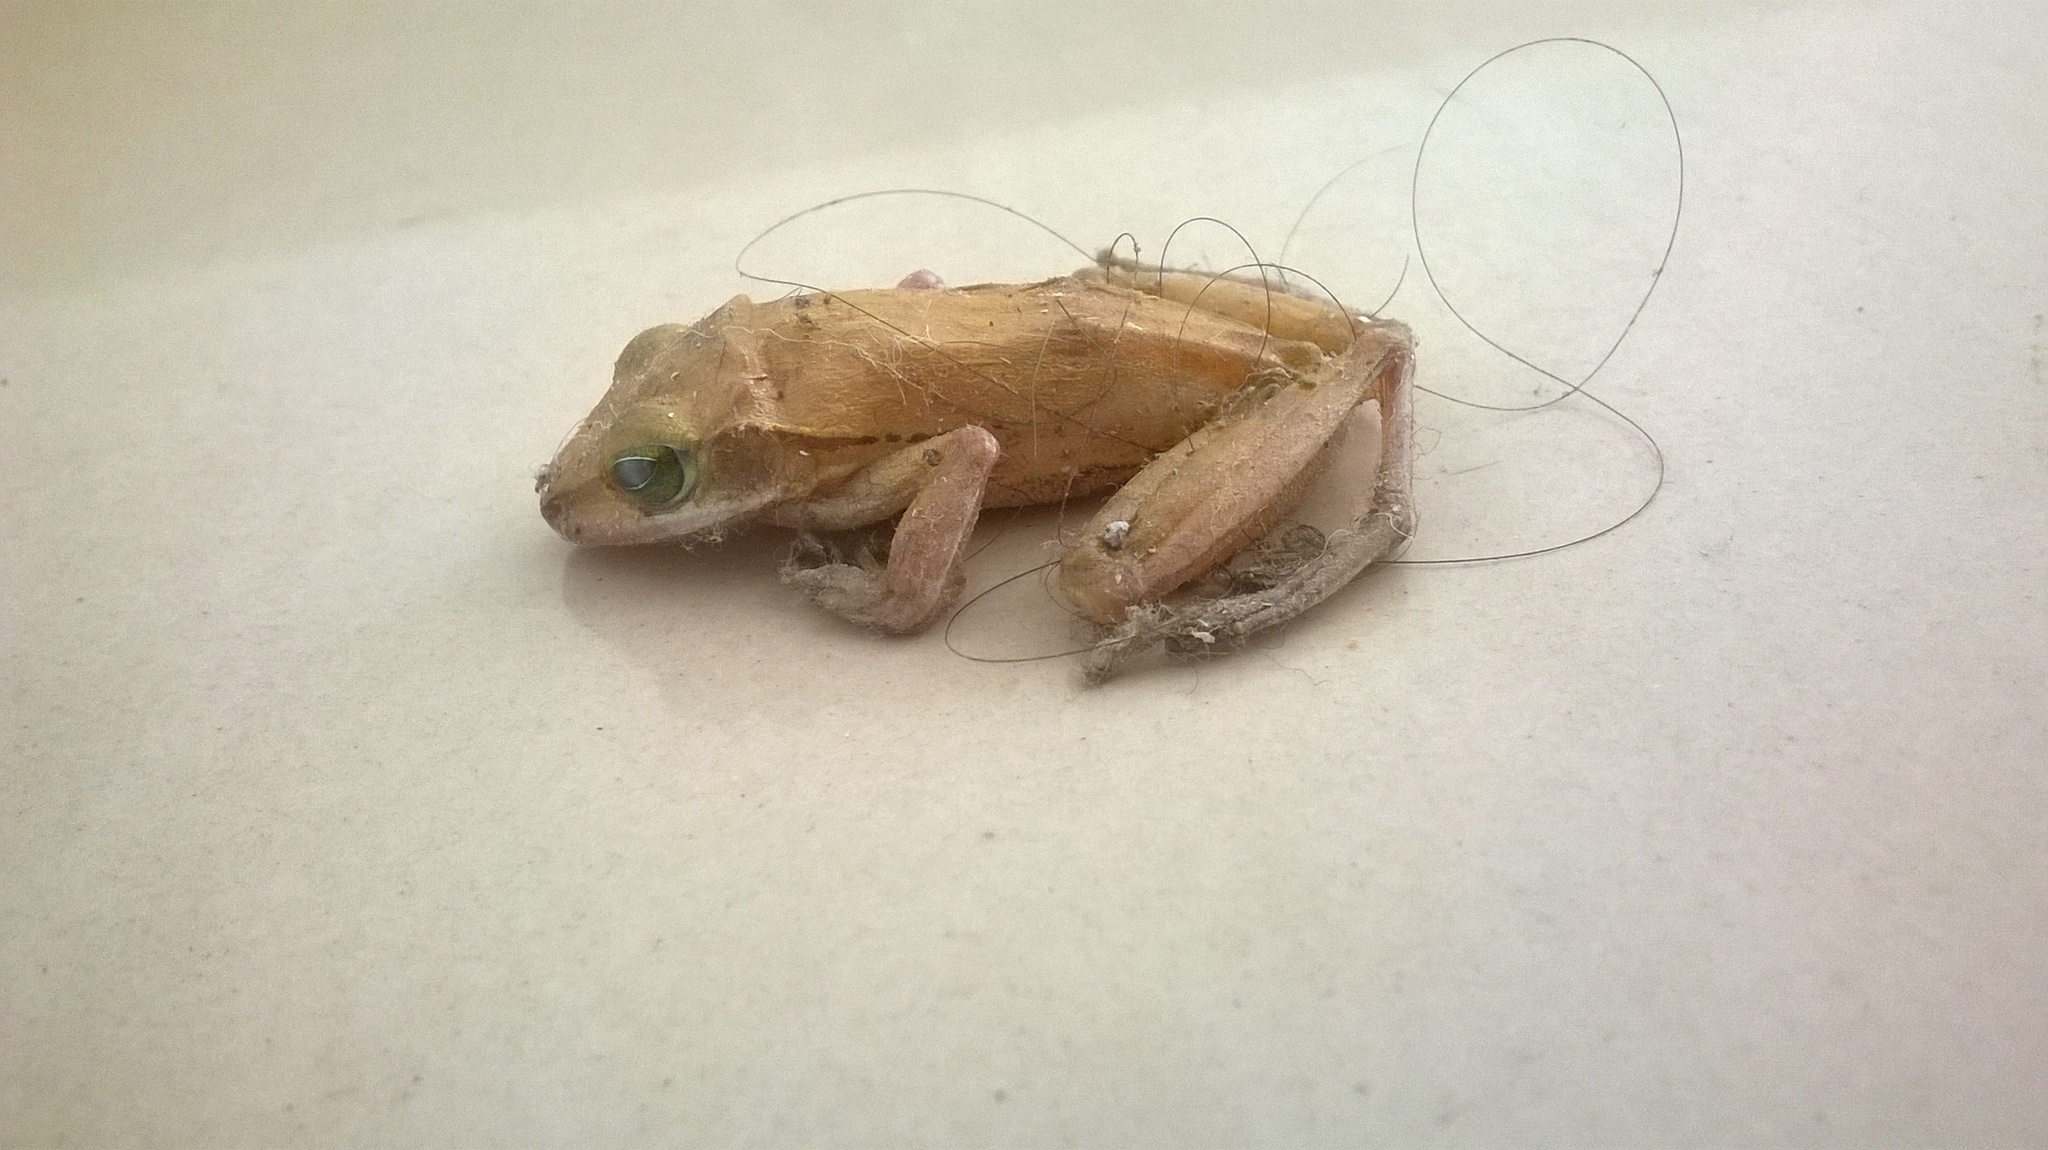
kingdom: Animalia
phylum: Chordata
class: Amphibia
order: Anura
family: Rhacophoridae
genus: Polypedates
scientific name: Polypedates maculatus
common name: Himalayan tree frog
